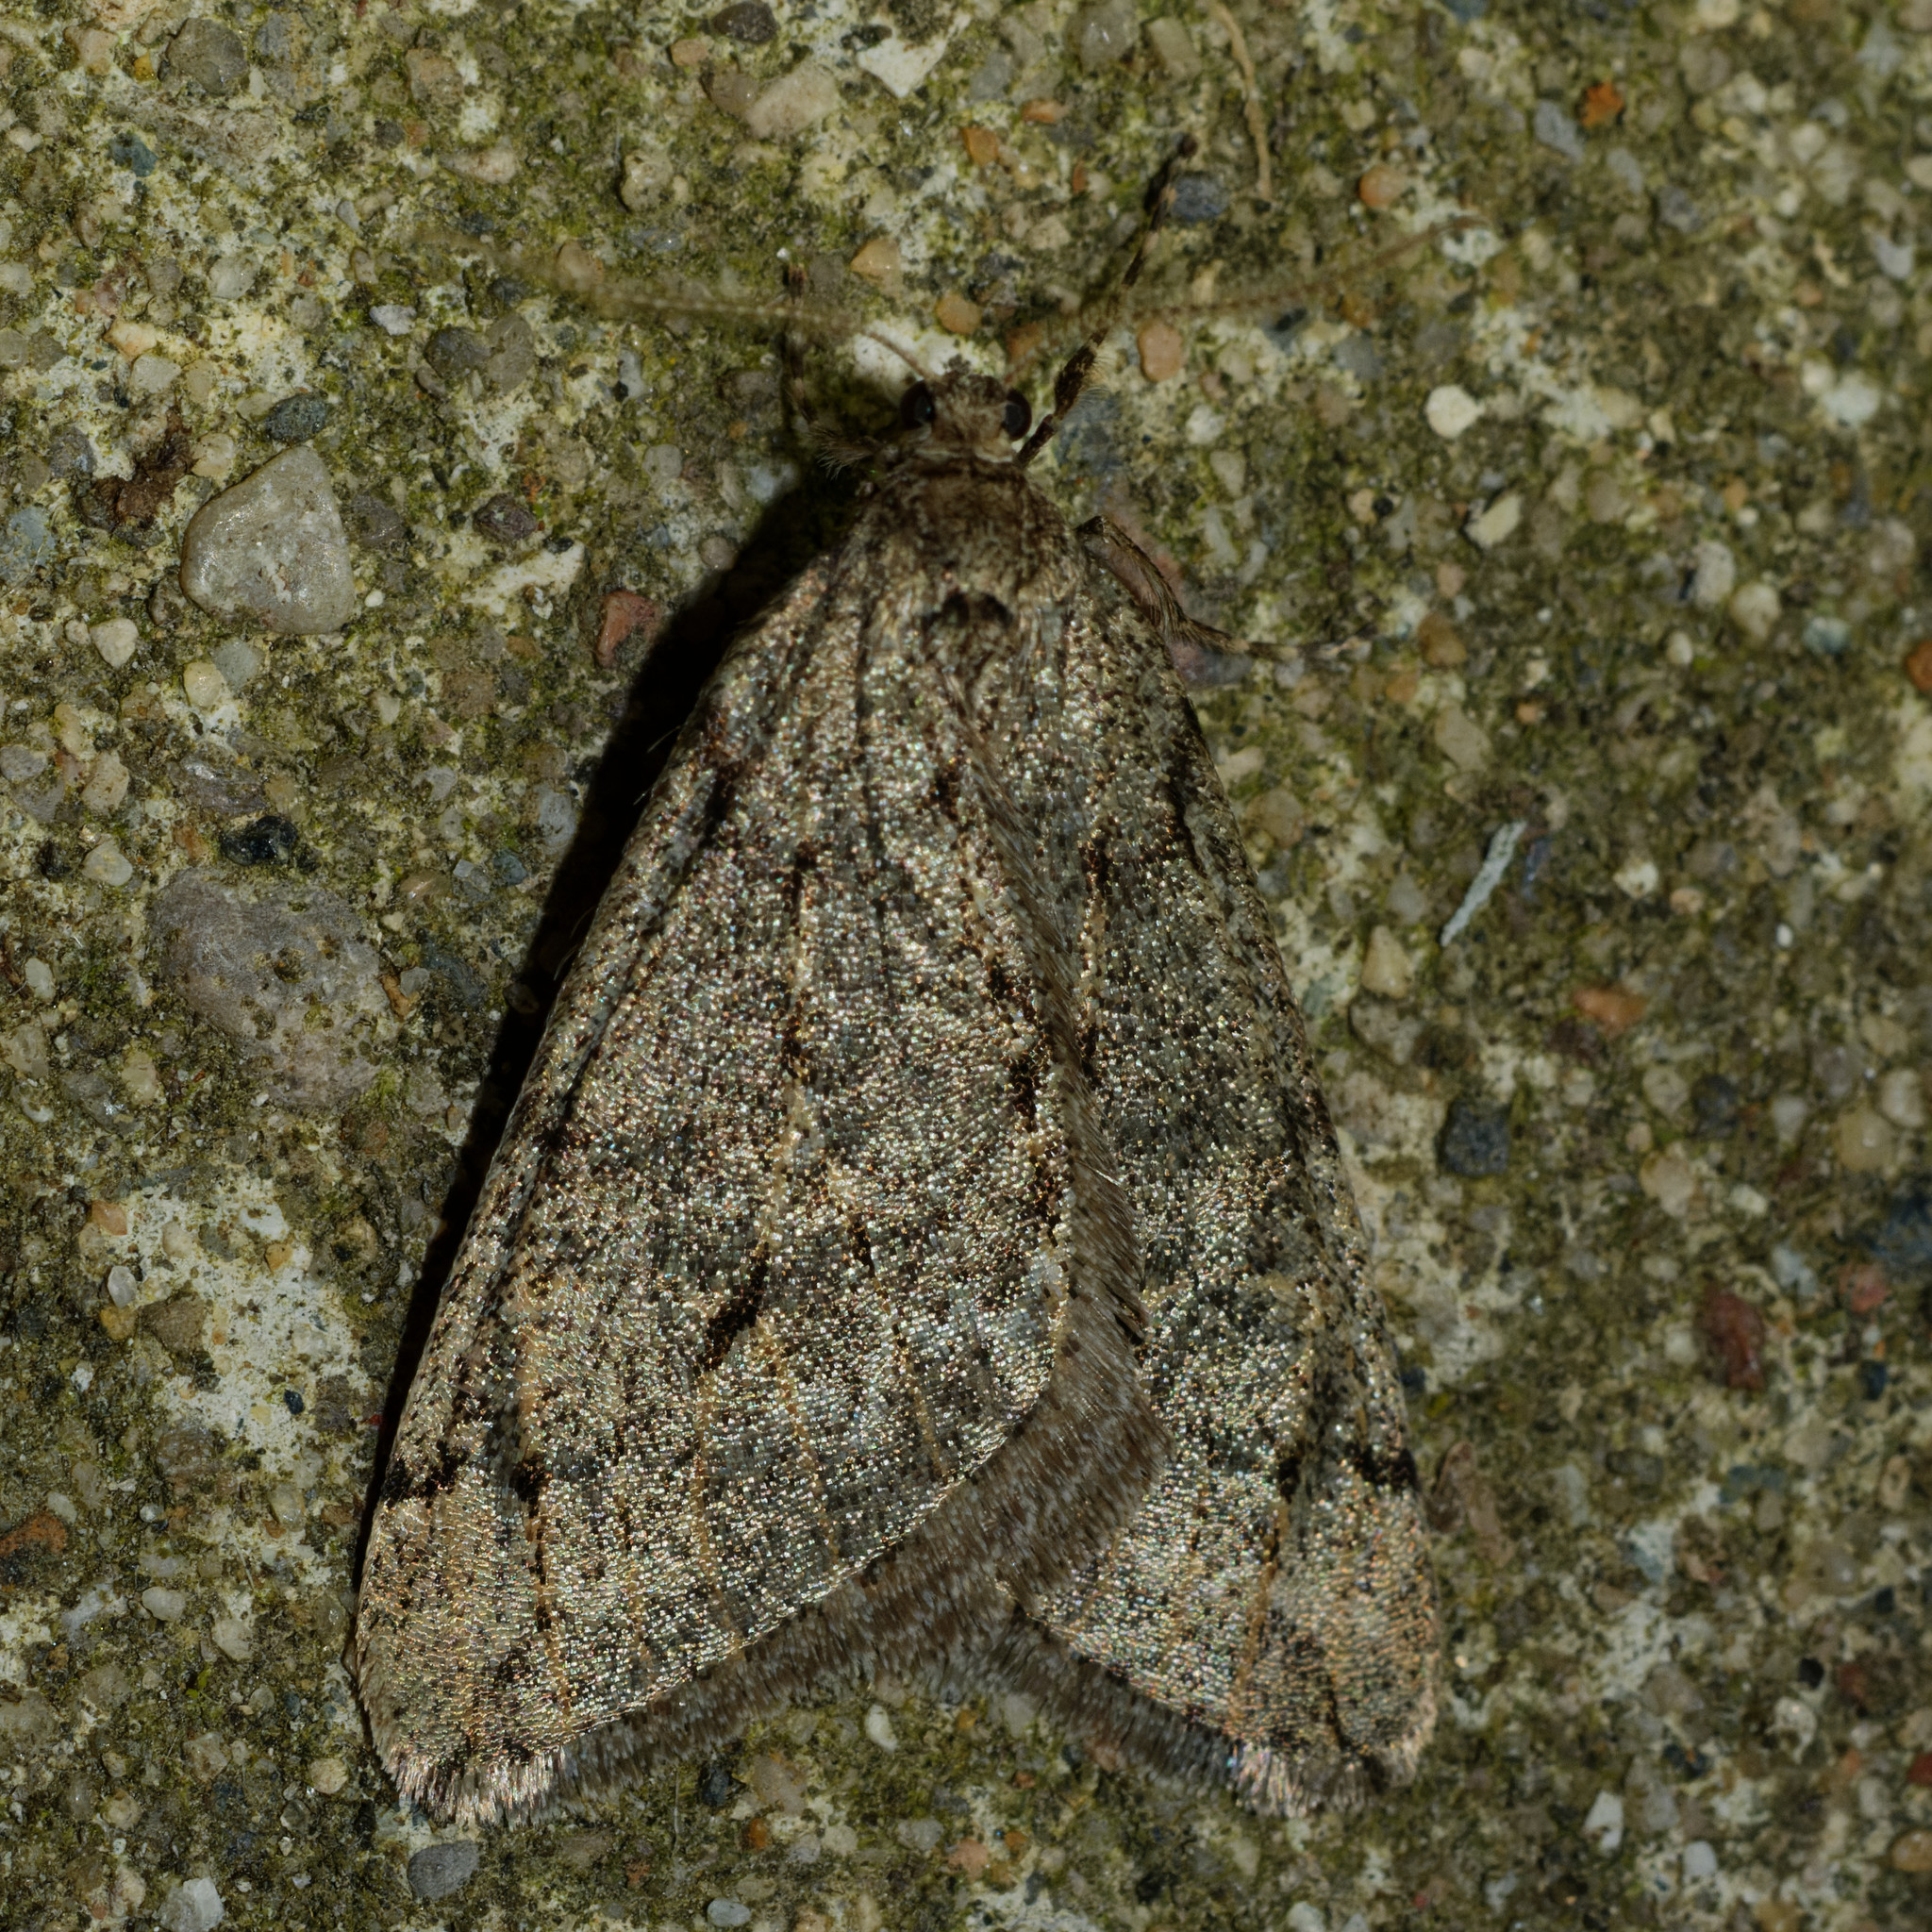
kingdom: Animalia
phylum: Arthropoda
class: Insecta
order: Lepidoptera
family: Geometridae
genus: Paleacrita
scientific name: Paleacrita vernata
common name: Spring cankerworm
